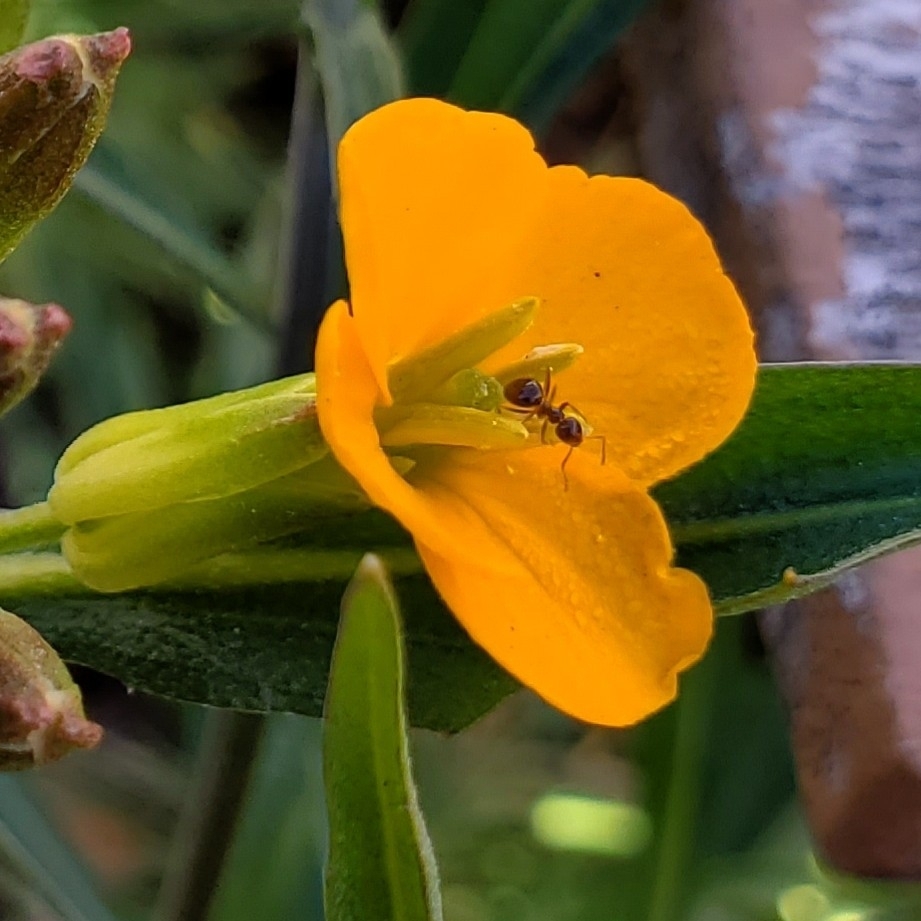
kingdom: Animalia
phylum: Arthropoda
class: Insecta
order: Hymenoptera
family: Formicidae
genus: Prenolepis
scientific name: Prenolepis imparis
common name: Small honey ant
